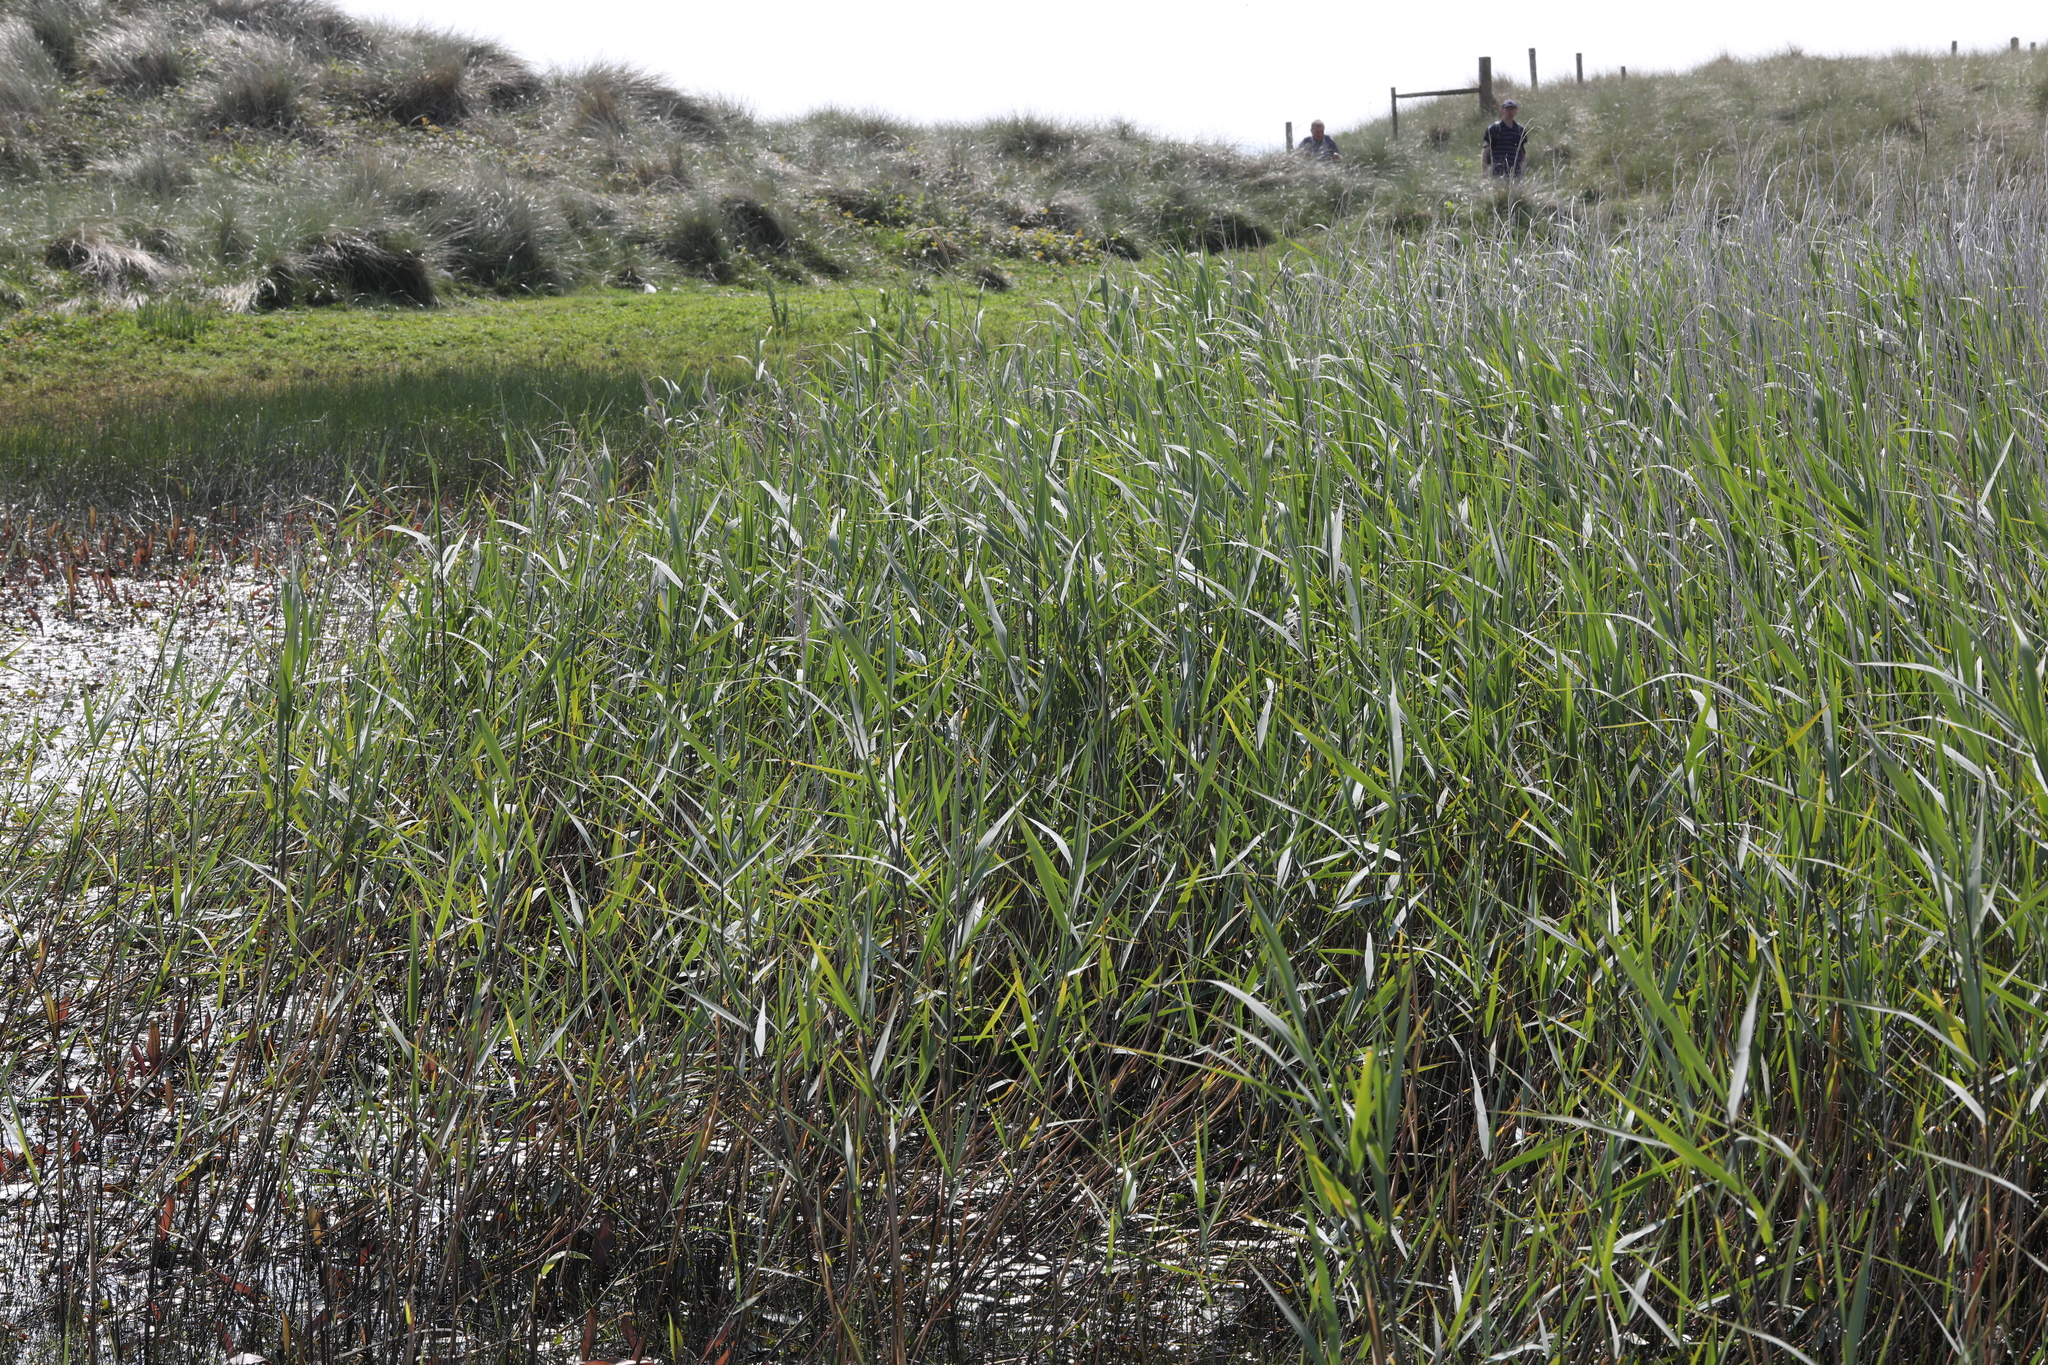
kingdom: Plantae
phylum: Tracheophyta
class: Liliopsida
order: Poales
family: Poaceae
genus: Phragmites
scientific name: Phragmites australis
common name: Common reed
